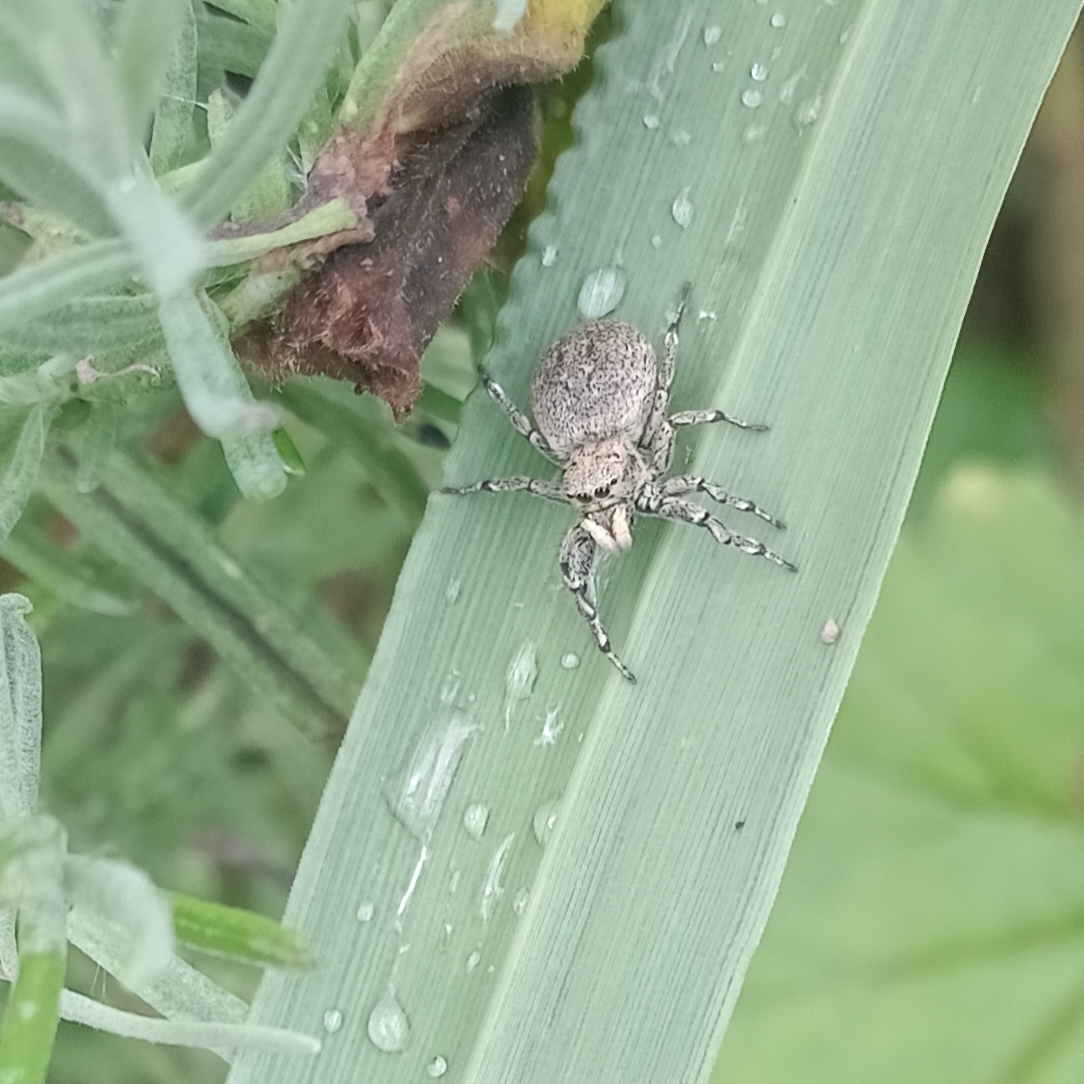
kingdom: Animalia
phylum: Arthropoda
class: Arachnida
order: Araneae
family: Salticidae
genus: Heliophanus
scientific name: Heliophanus
